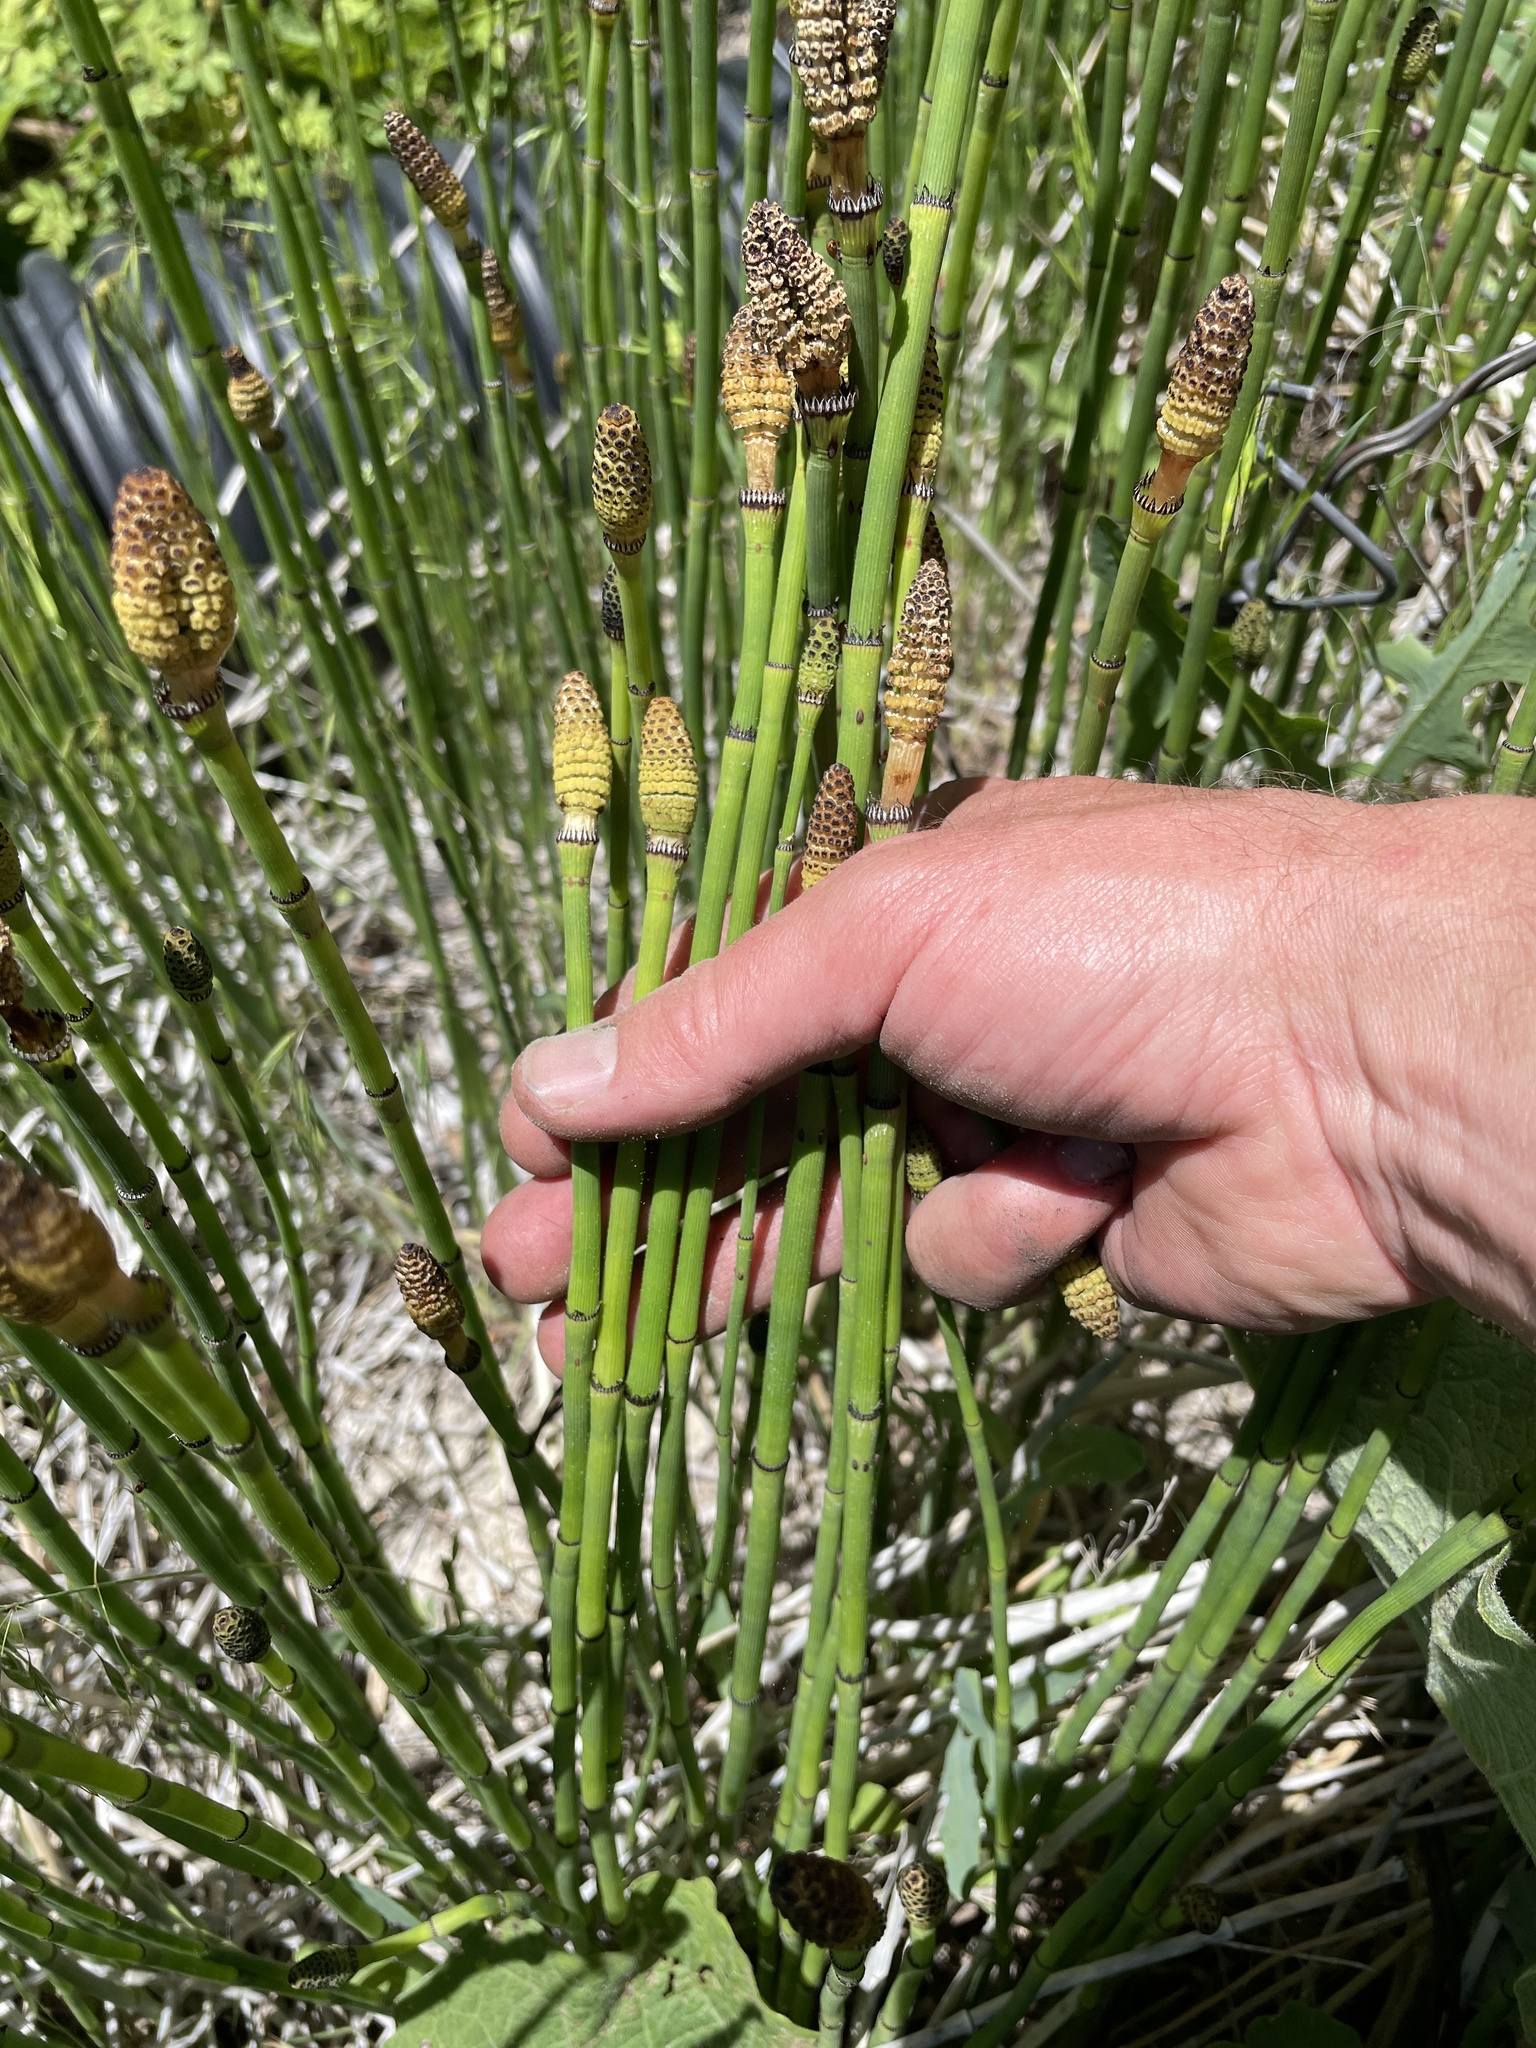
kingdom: Plantae
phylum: Tracheophyta
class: Polypodiopsida
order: Equisetales
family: Equisetaceae
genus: Equisetum
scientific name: Equisetum laevigatum
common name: Smooth scouring-rush
